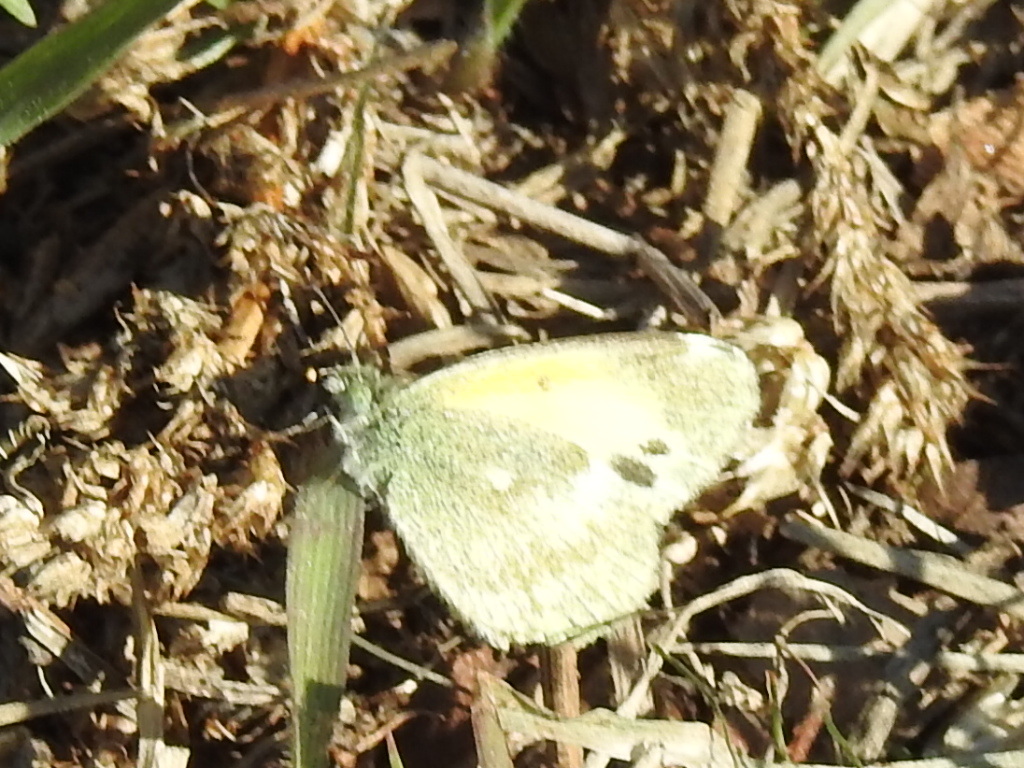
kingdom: Animalia
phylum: Arthropoda
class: Insecta
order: Lepidoptera
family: Pieridae
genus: Nathalis
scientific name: Nathalis iole
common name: Dainty sulphur
